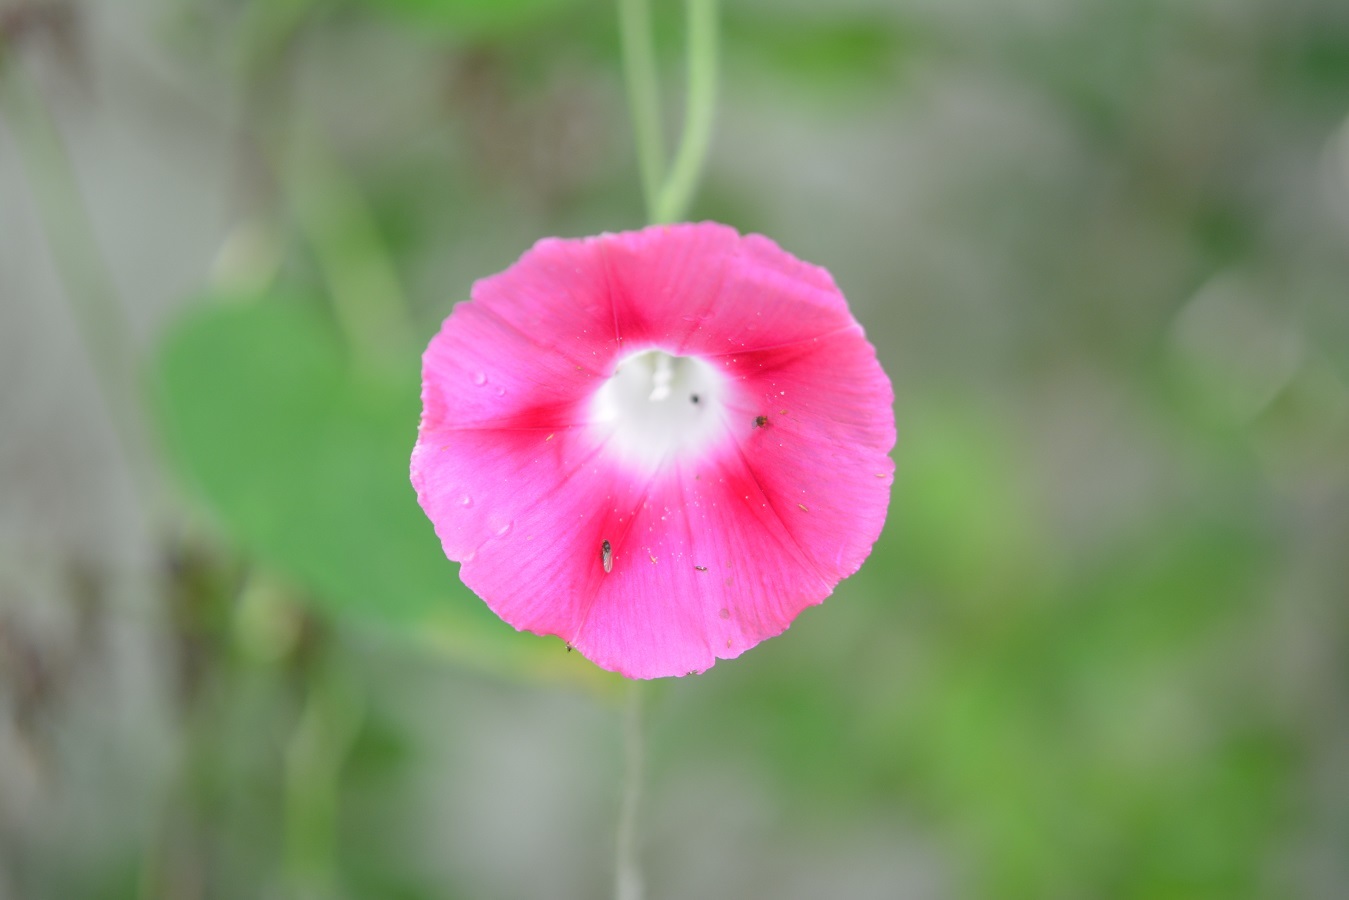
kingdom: Plantae
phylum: Tracheophyta
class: Magnoliopsida
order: Solanales
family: Convolvulaceae
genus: Ipomoea
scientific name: Ipomoea purpurea
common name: Common morning-glory
